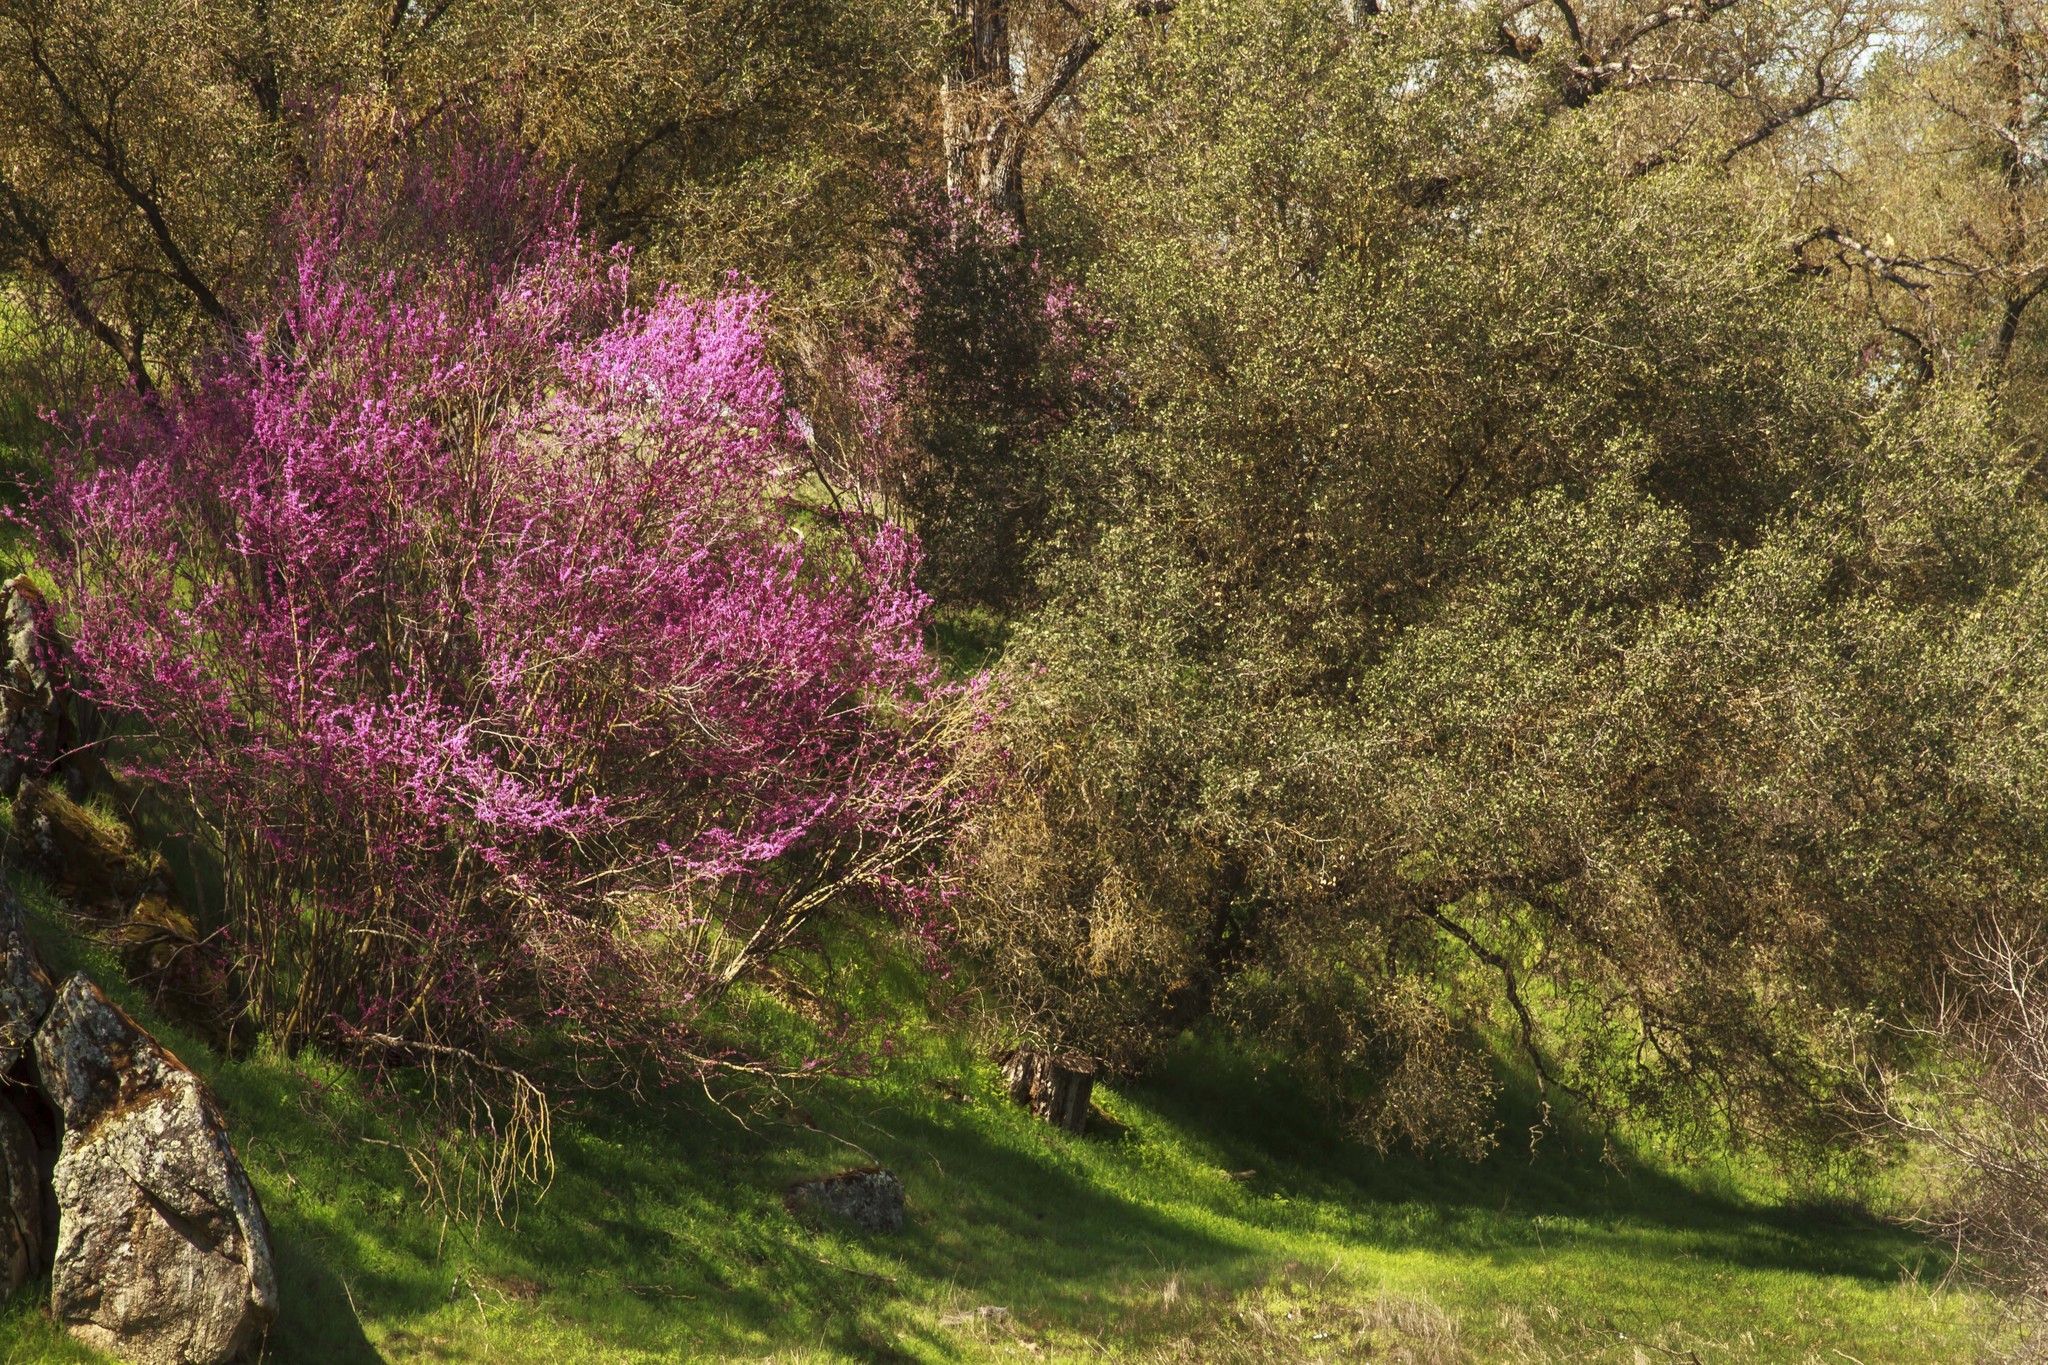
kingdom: Plantae
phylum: Tracheophyta
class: Magnoliopsida
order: Fabales
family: Fabaceae
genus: Cercis
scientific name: Cercis occidentalis
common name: California redbud
